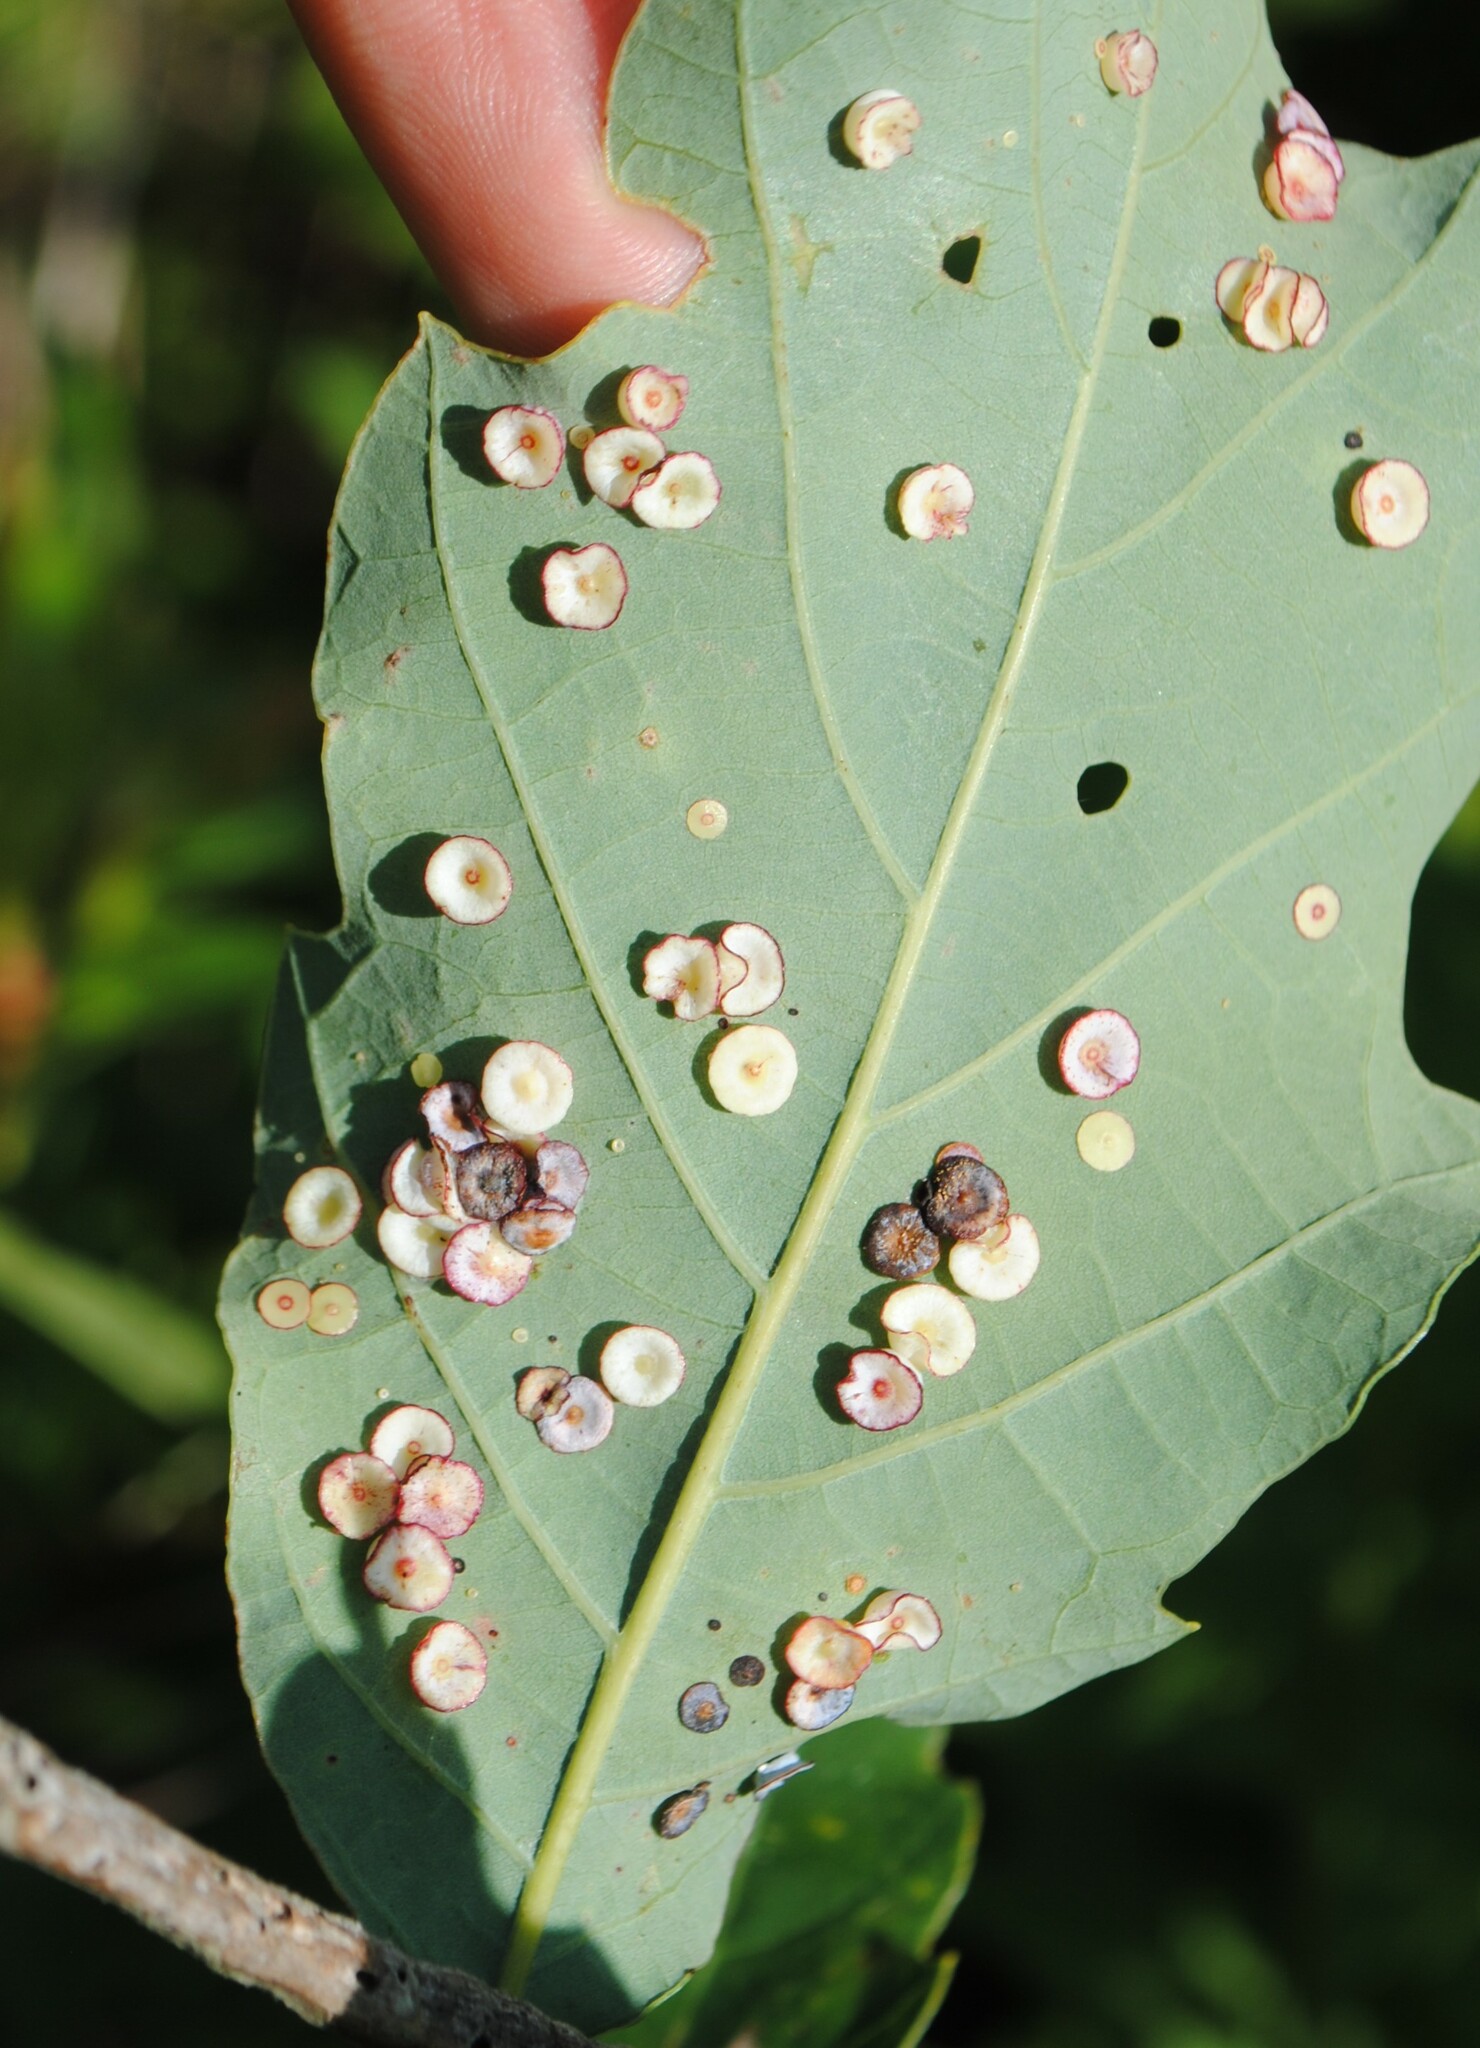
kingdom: Animalia
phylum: Arthropoda
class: Insecta
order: Hymenoptera
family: Cynipidae
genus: Phylloteras
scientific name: Phylloteras poculum
